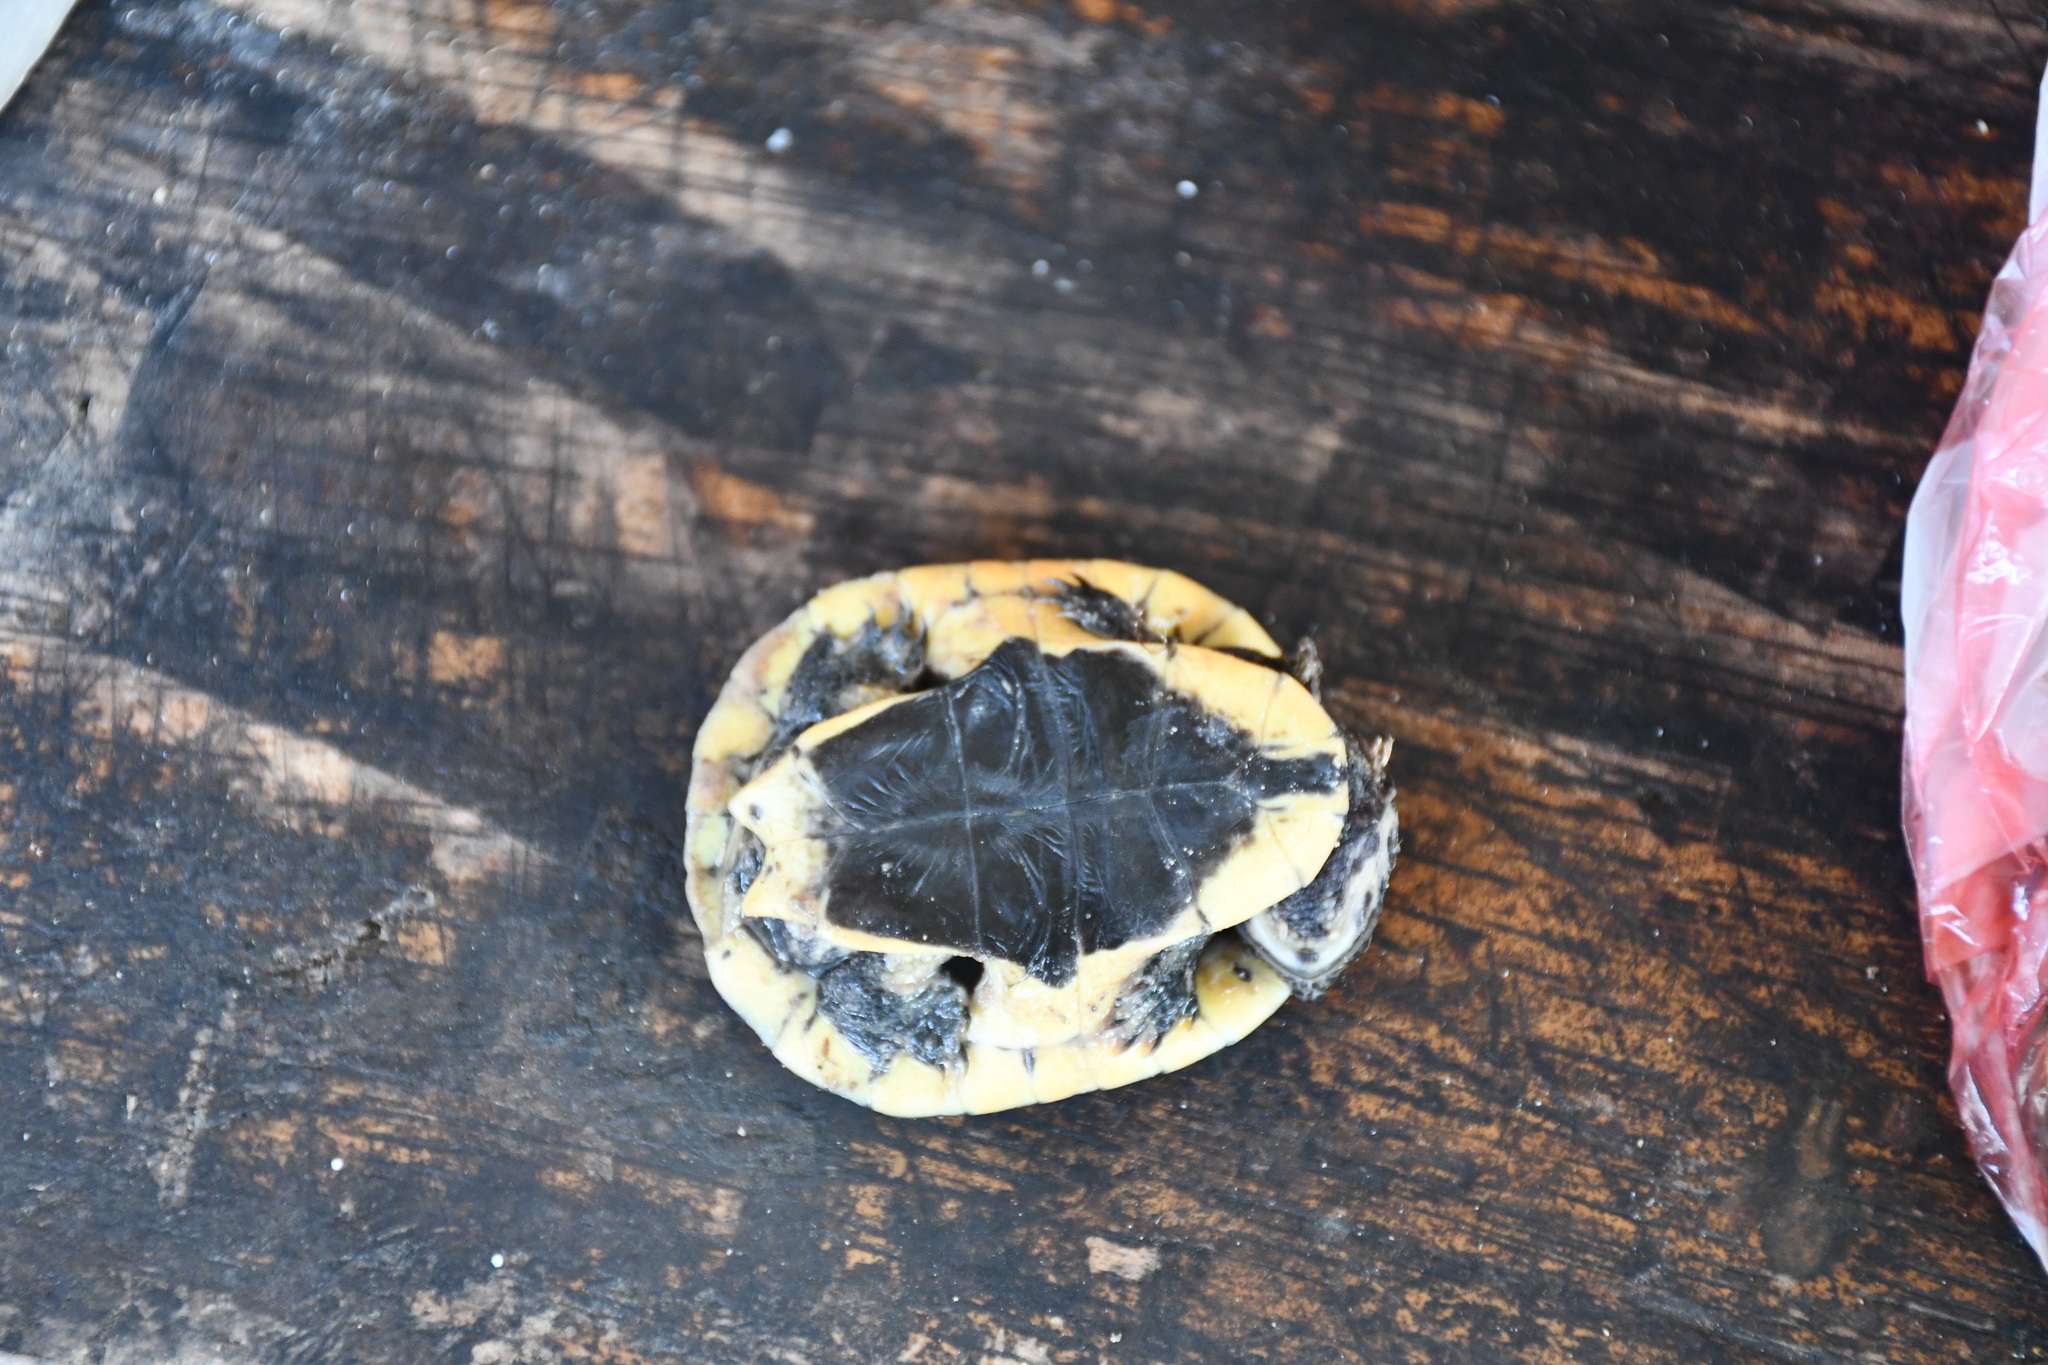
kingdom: Animalia
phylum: Chordata
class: Testudines
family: Chelidae
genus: Mesoclemmys
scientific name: Mesoclemmys gibba
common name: Gibba turtle
